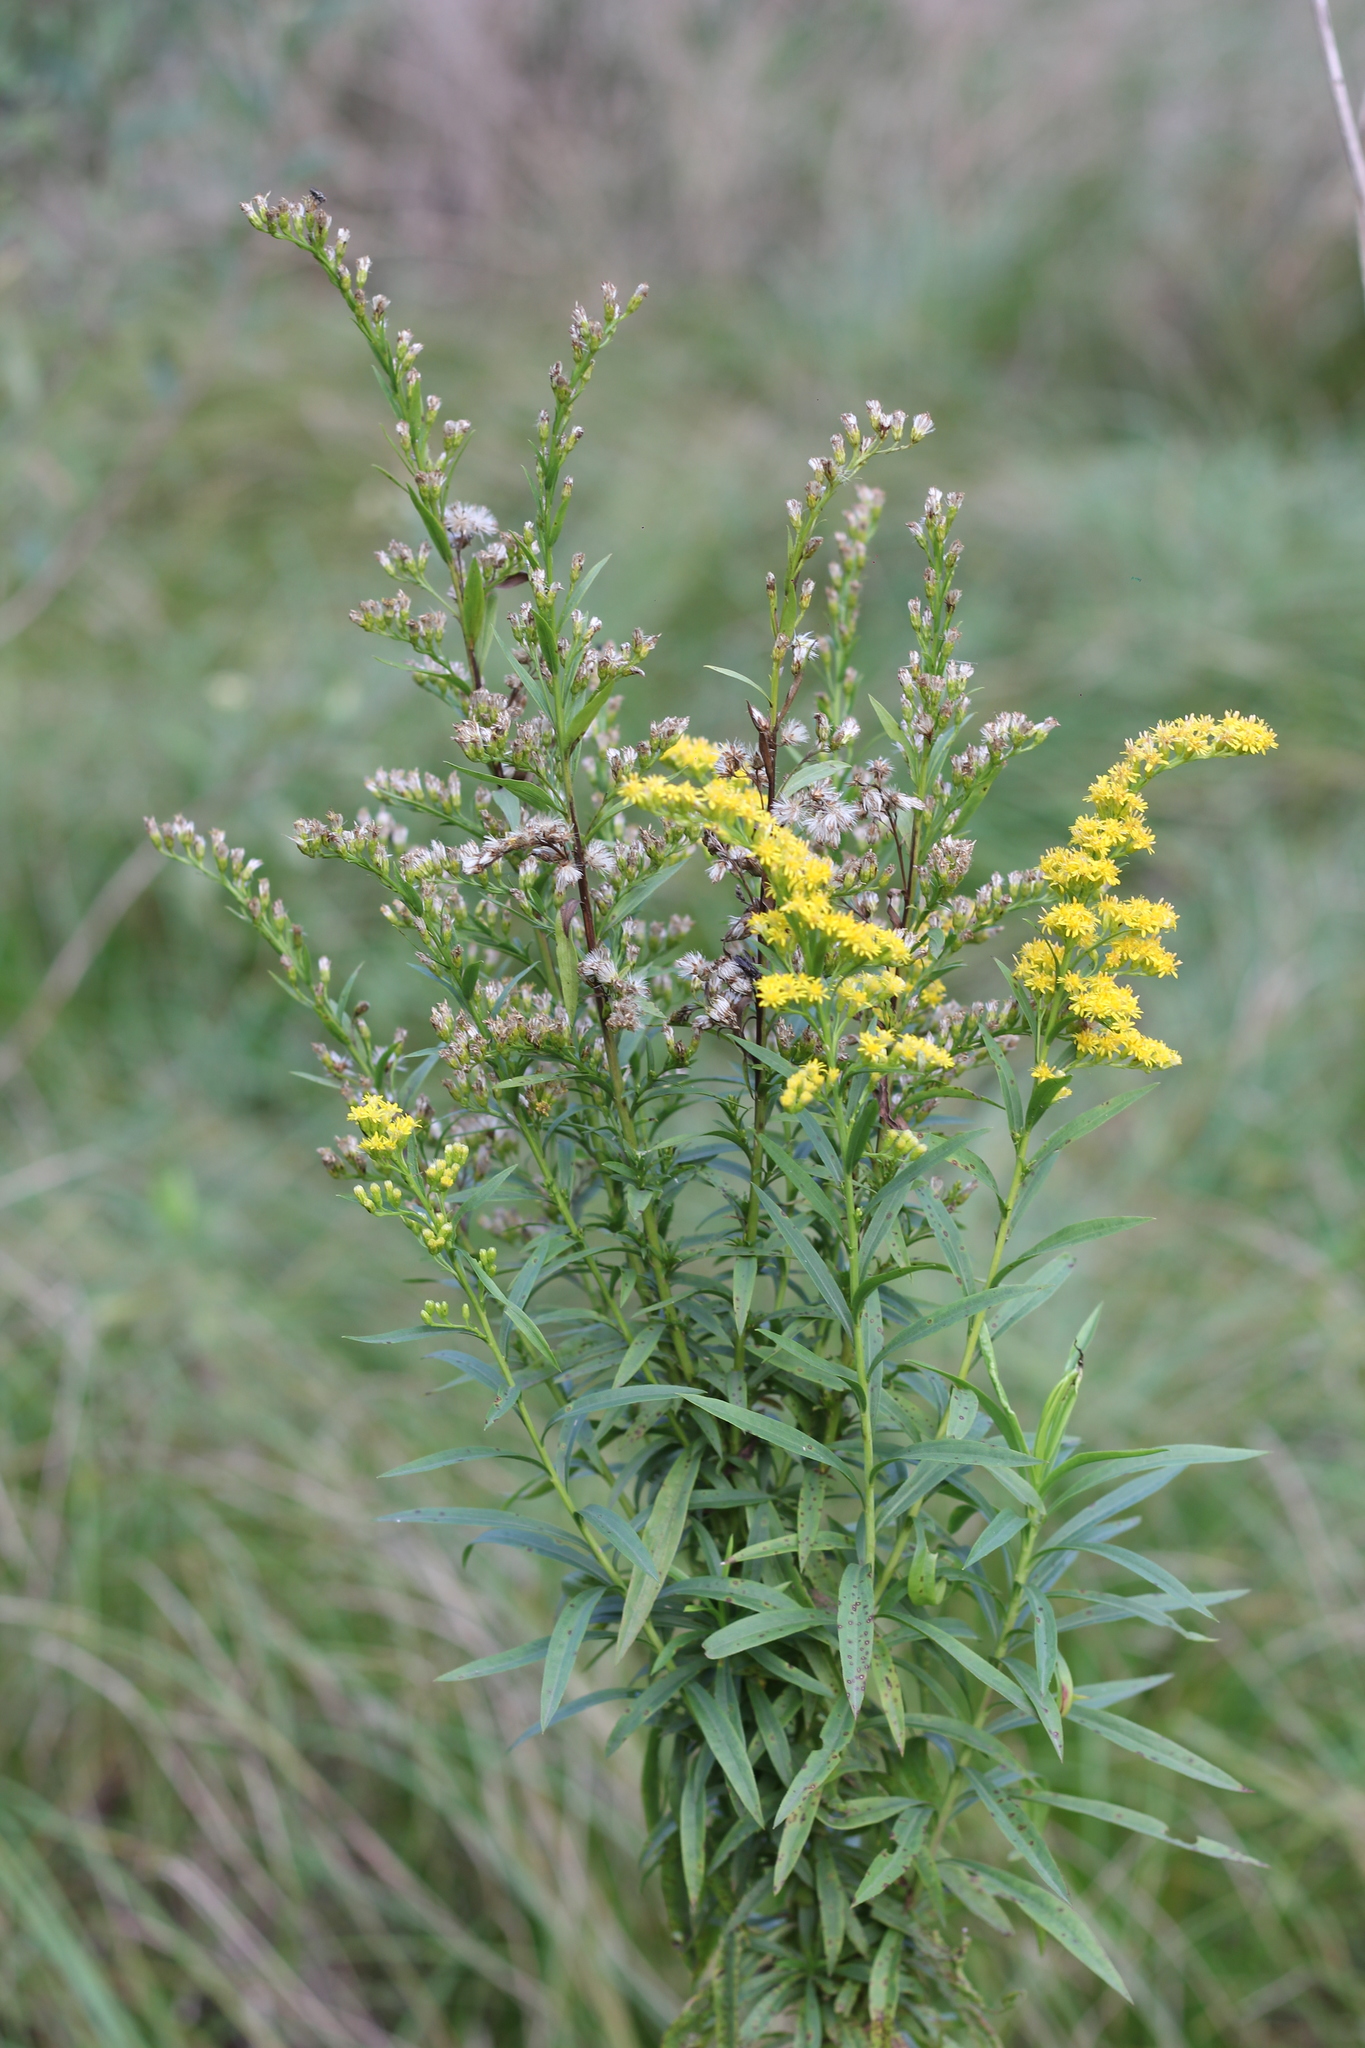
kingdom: Plantae
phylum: Tracheophyta
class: Magnoliopsida
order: Asterales
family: Asteraceae
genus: Solidago
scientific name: Solidago chilensis
